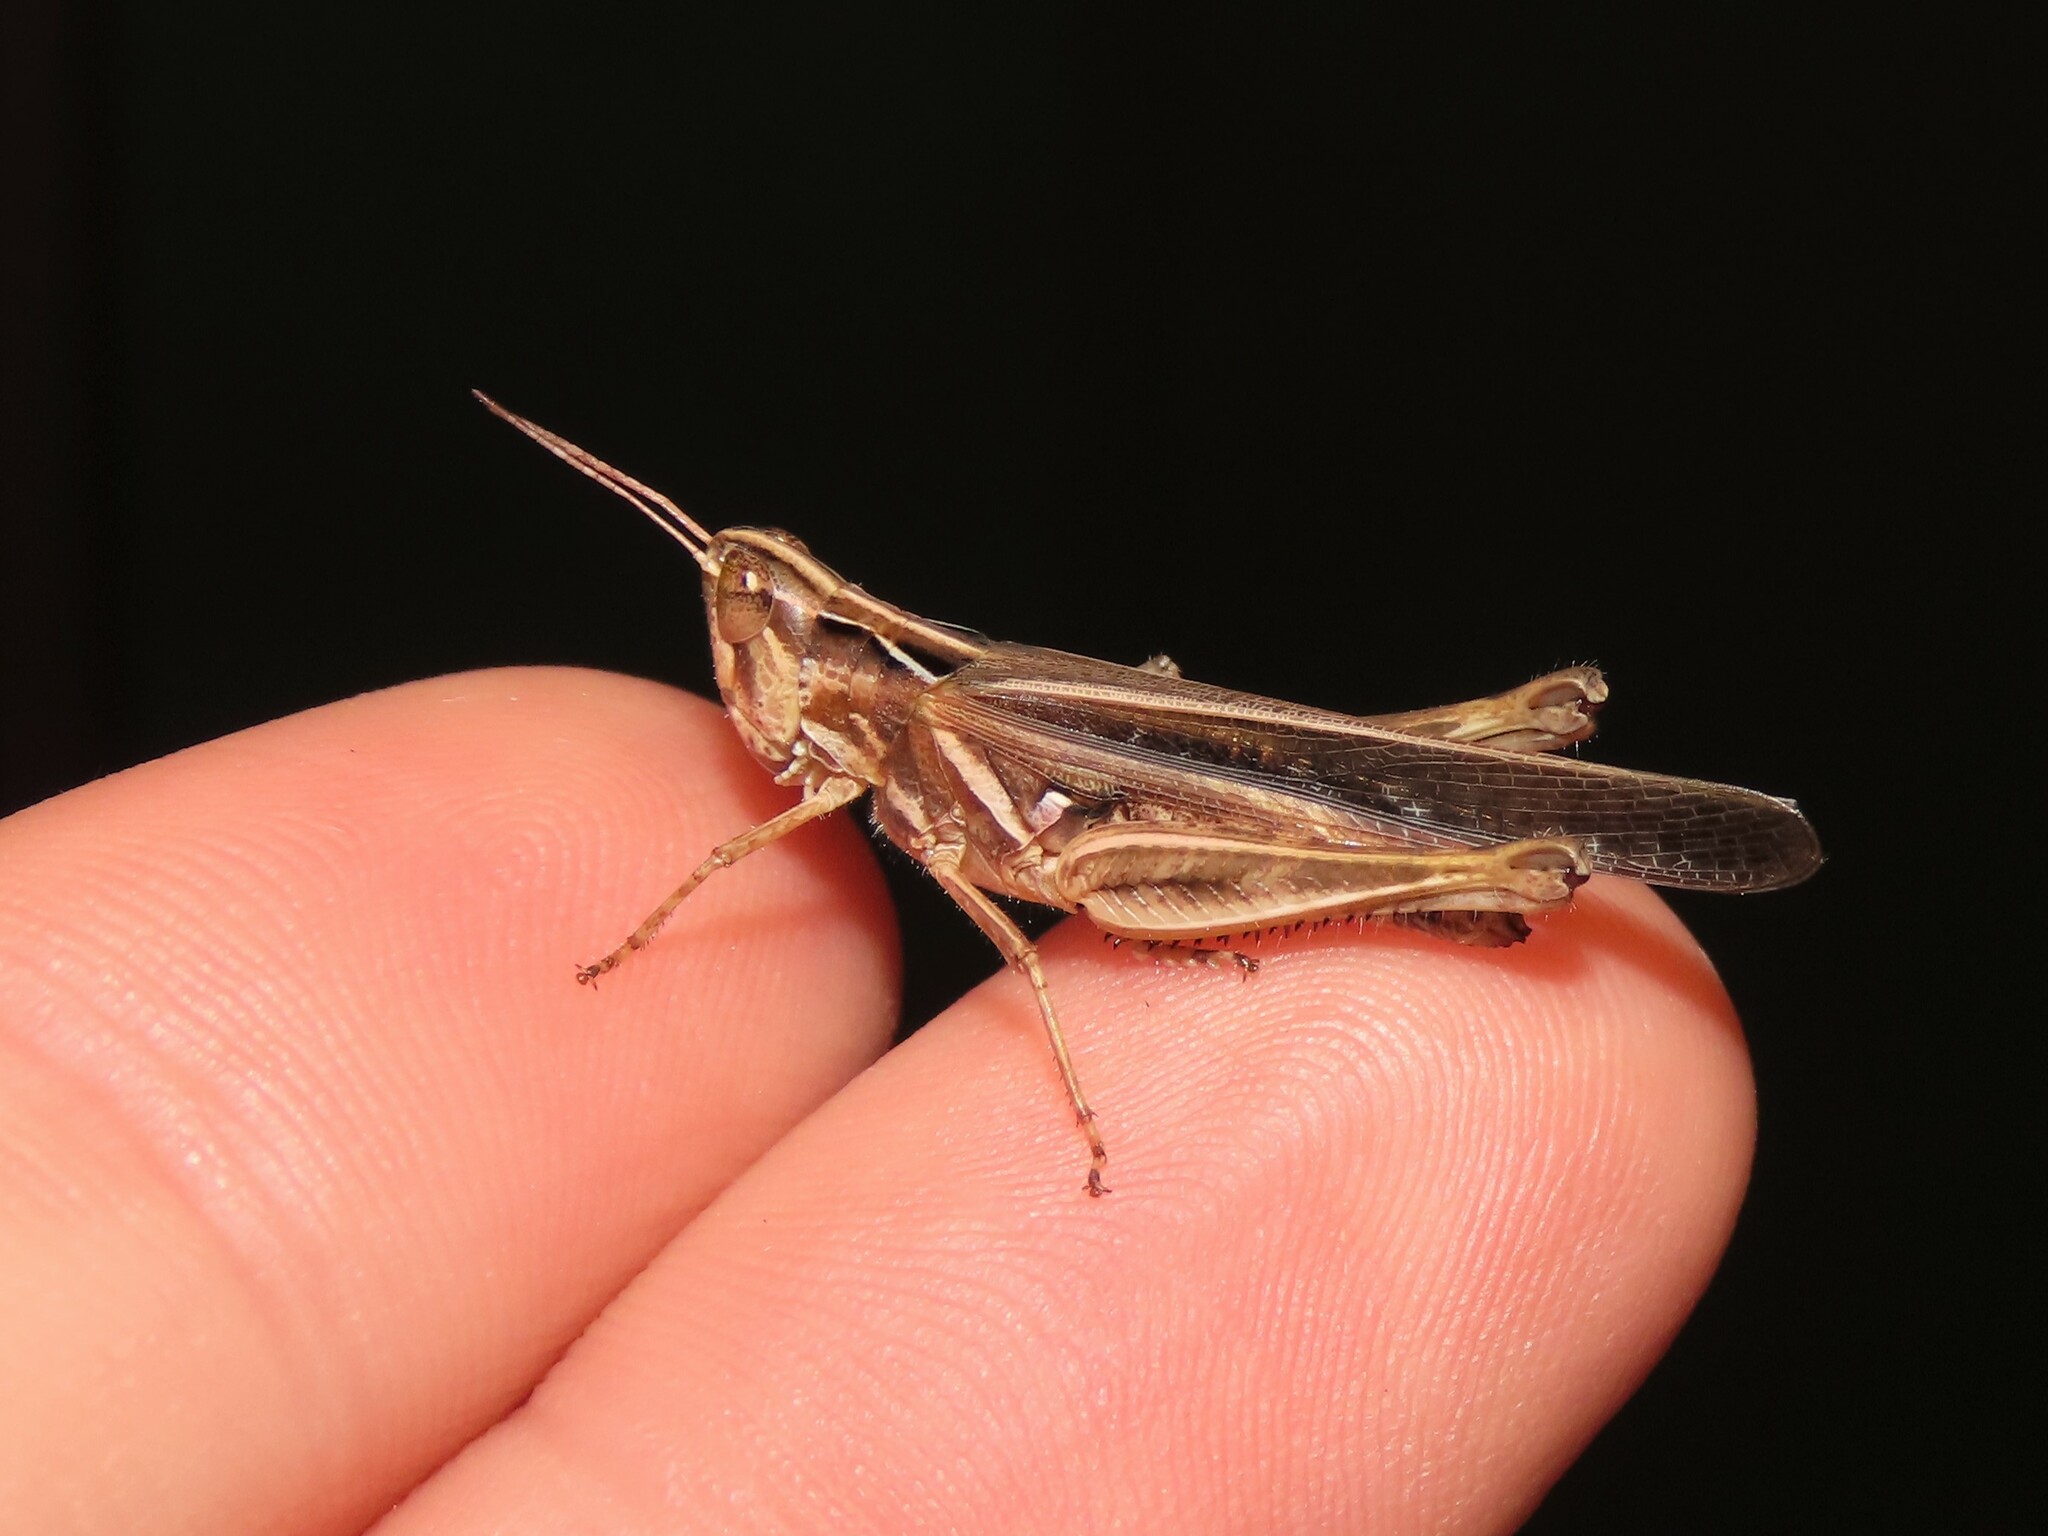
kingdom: Animalia
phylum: Arthropoda
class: Insecta
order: Orthoptera
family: Acrididae
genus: Orphulella
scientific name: Orphulella pelidna
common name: Spotted-wing grasshopper
